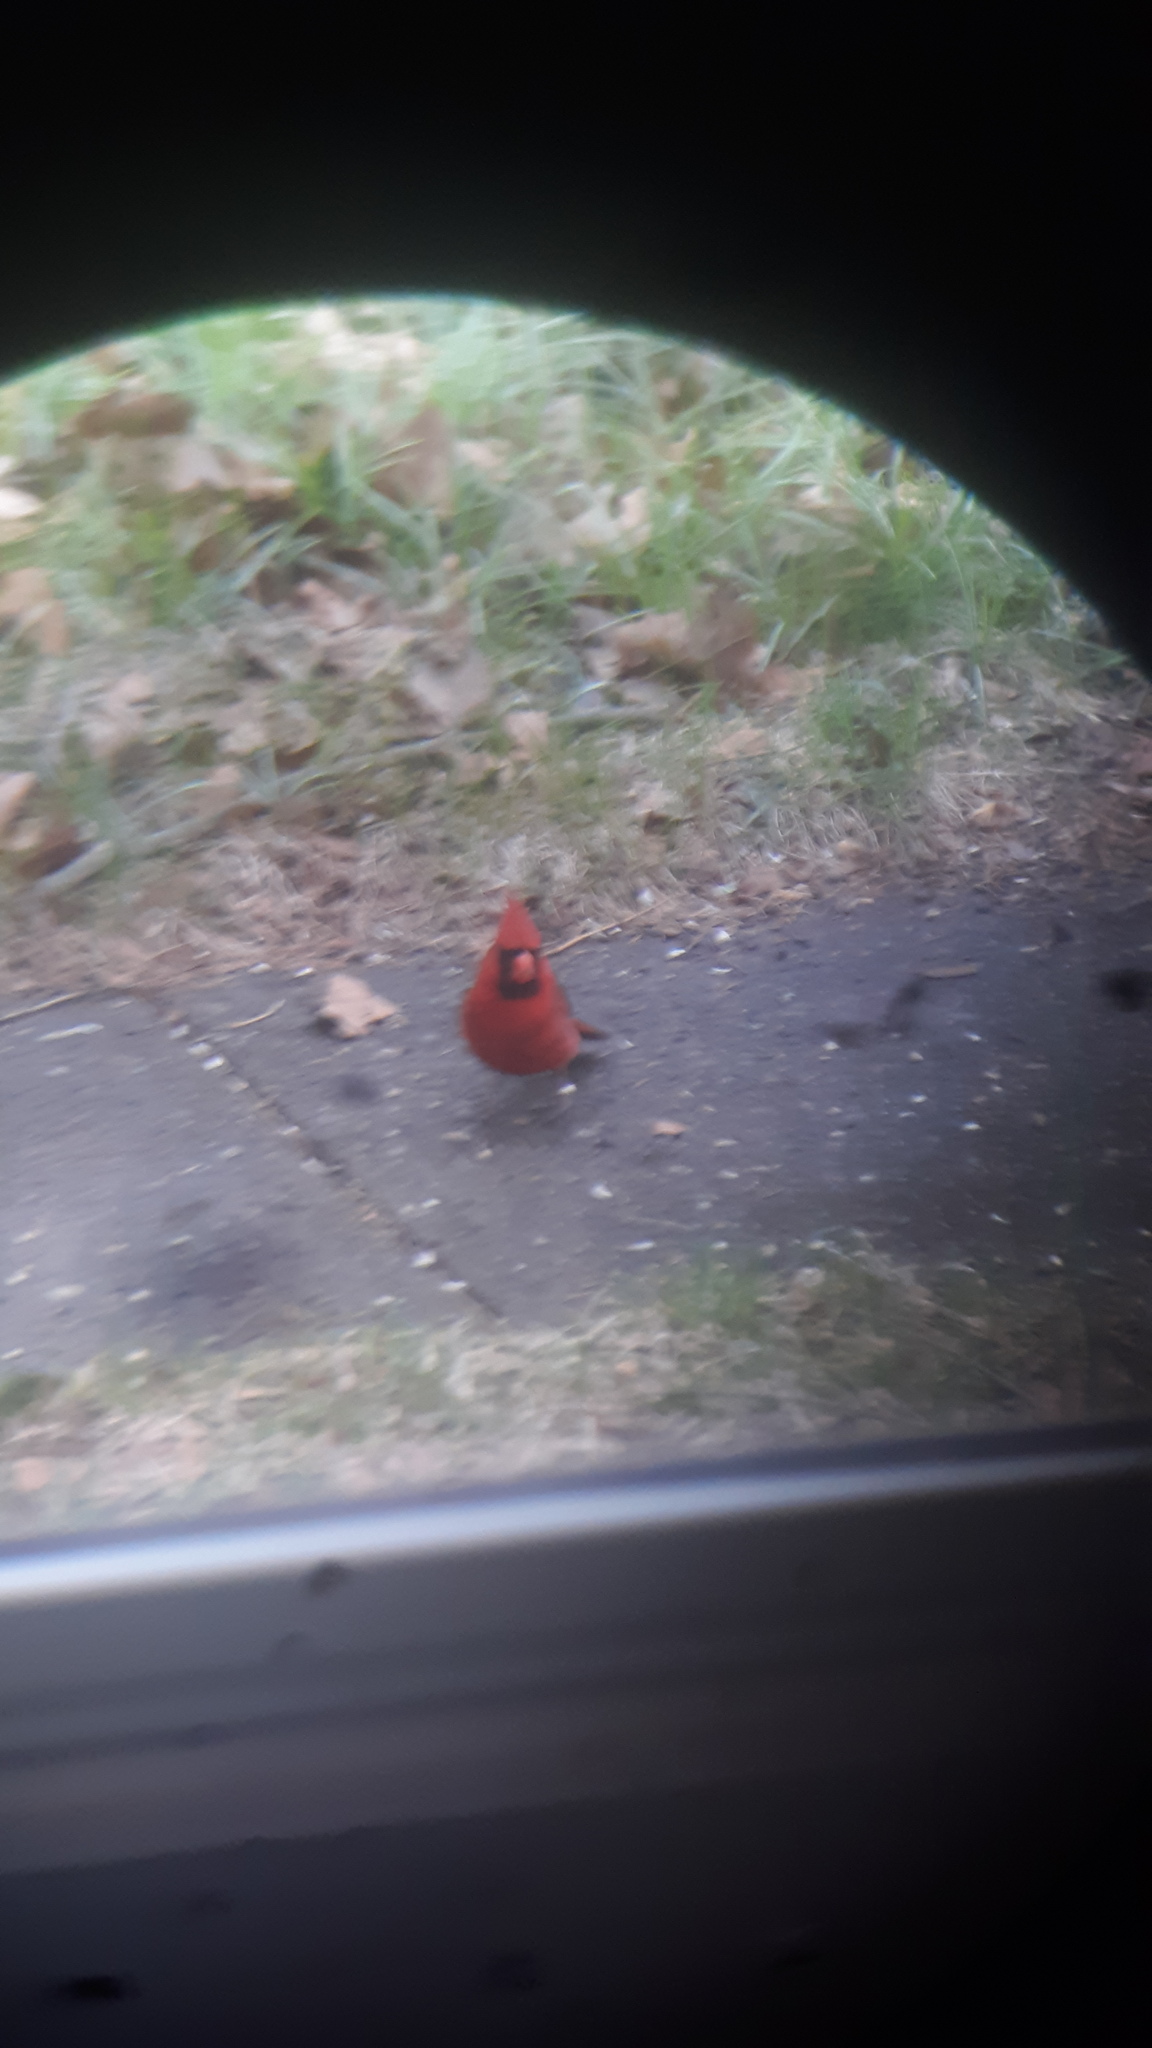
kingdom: Animalia
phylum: Chordata
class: Aves
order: Passeriformes
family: Cardinalidae
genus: Cardinalis
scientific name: Cardinalis cardinalis
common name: Northern cardinal
